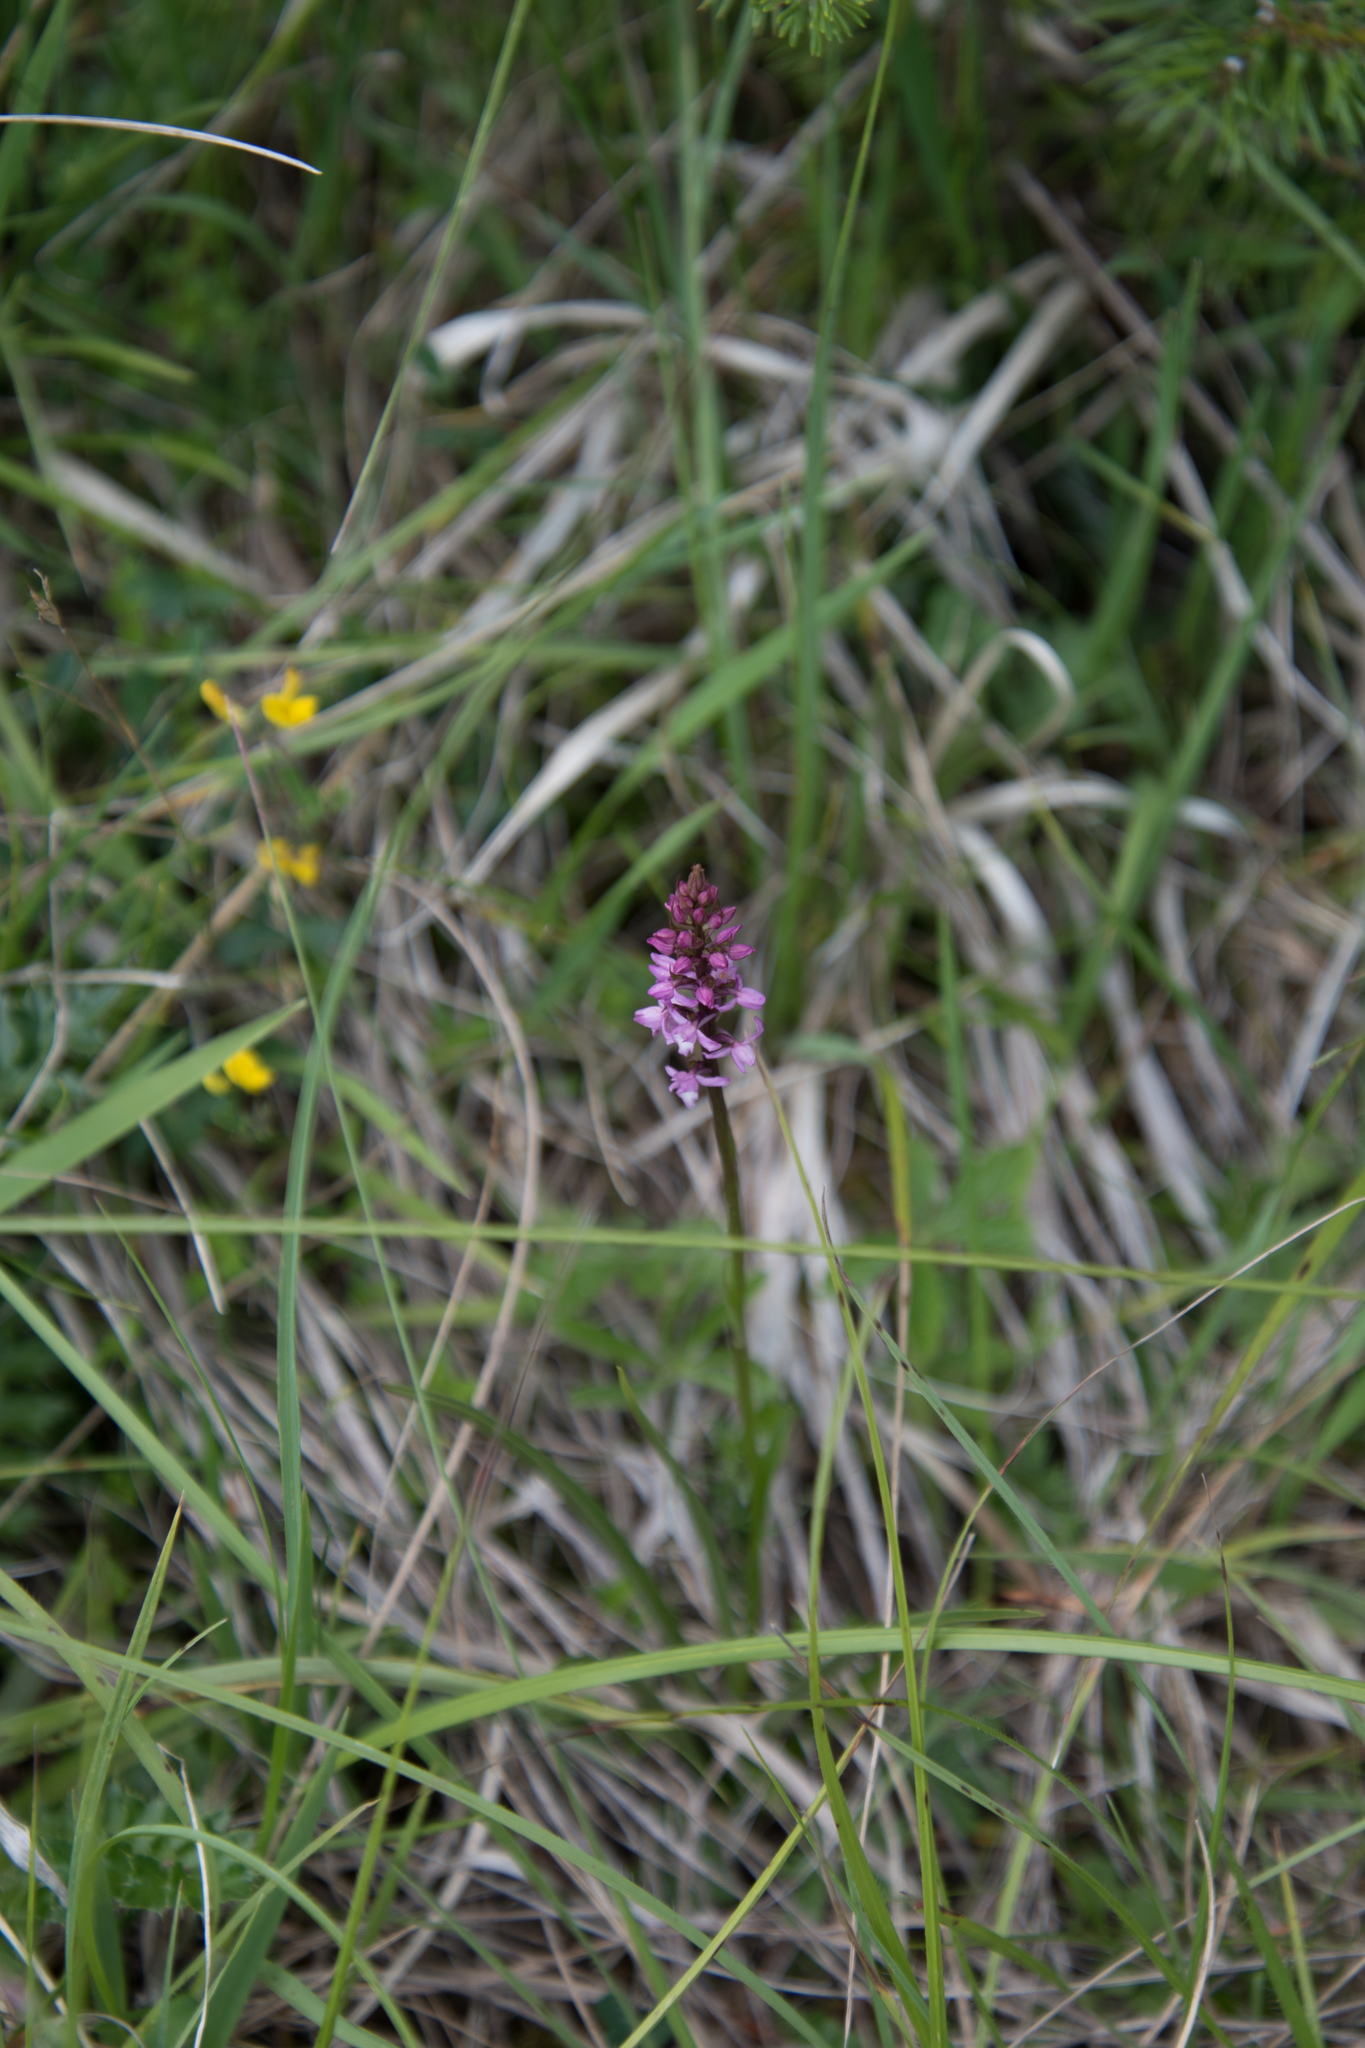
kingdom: Plantae
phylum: Tracheophyta
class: Liliopsida
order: Asparagales
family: Orchidaceae
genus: Gymnadenia
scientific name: Gymnadenia odoratissima
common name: Scented gymnadenia
